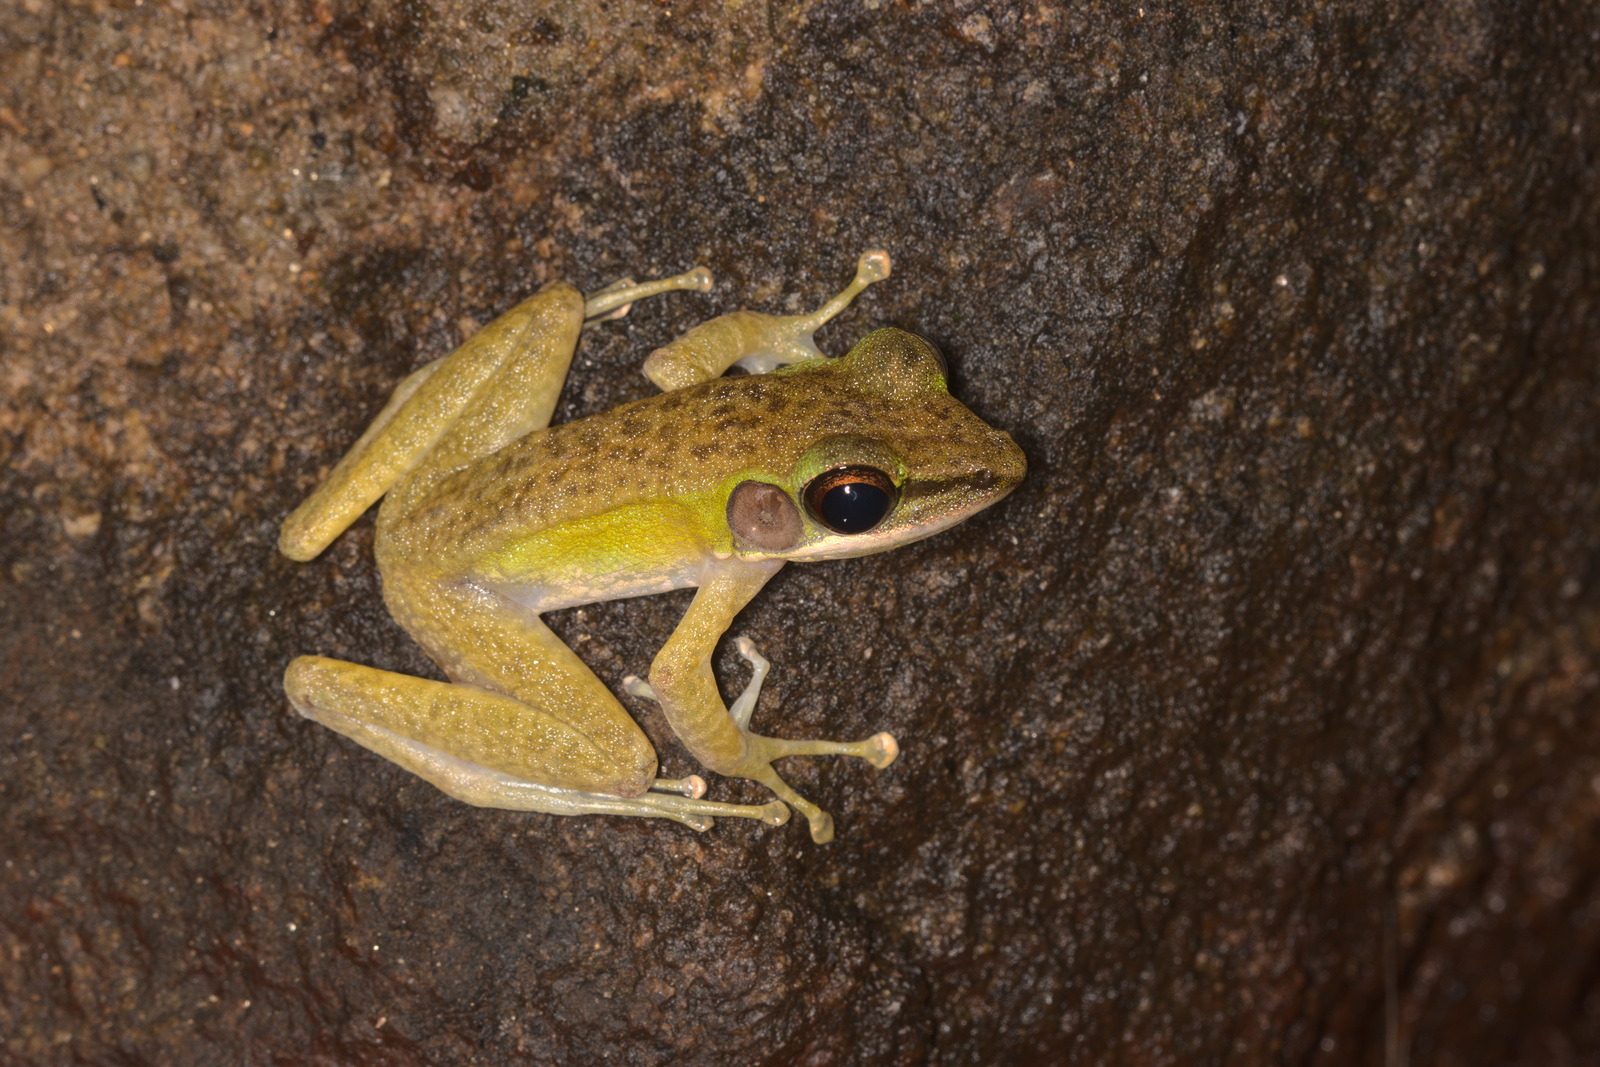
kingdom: Animalia
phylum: Chordata
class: Amphibia
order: Anura
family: Ranidae
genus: Odorrana
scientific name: Odorrana hosii
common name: Green tree frog
